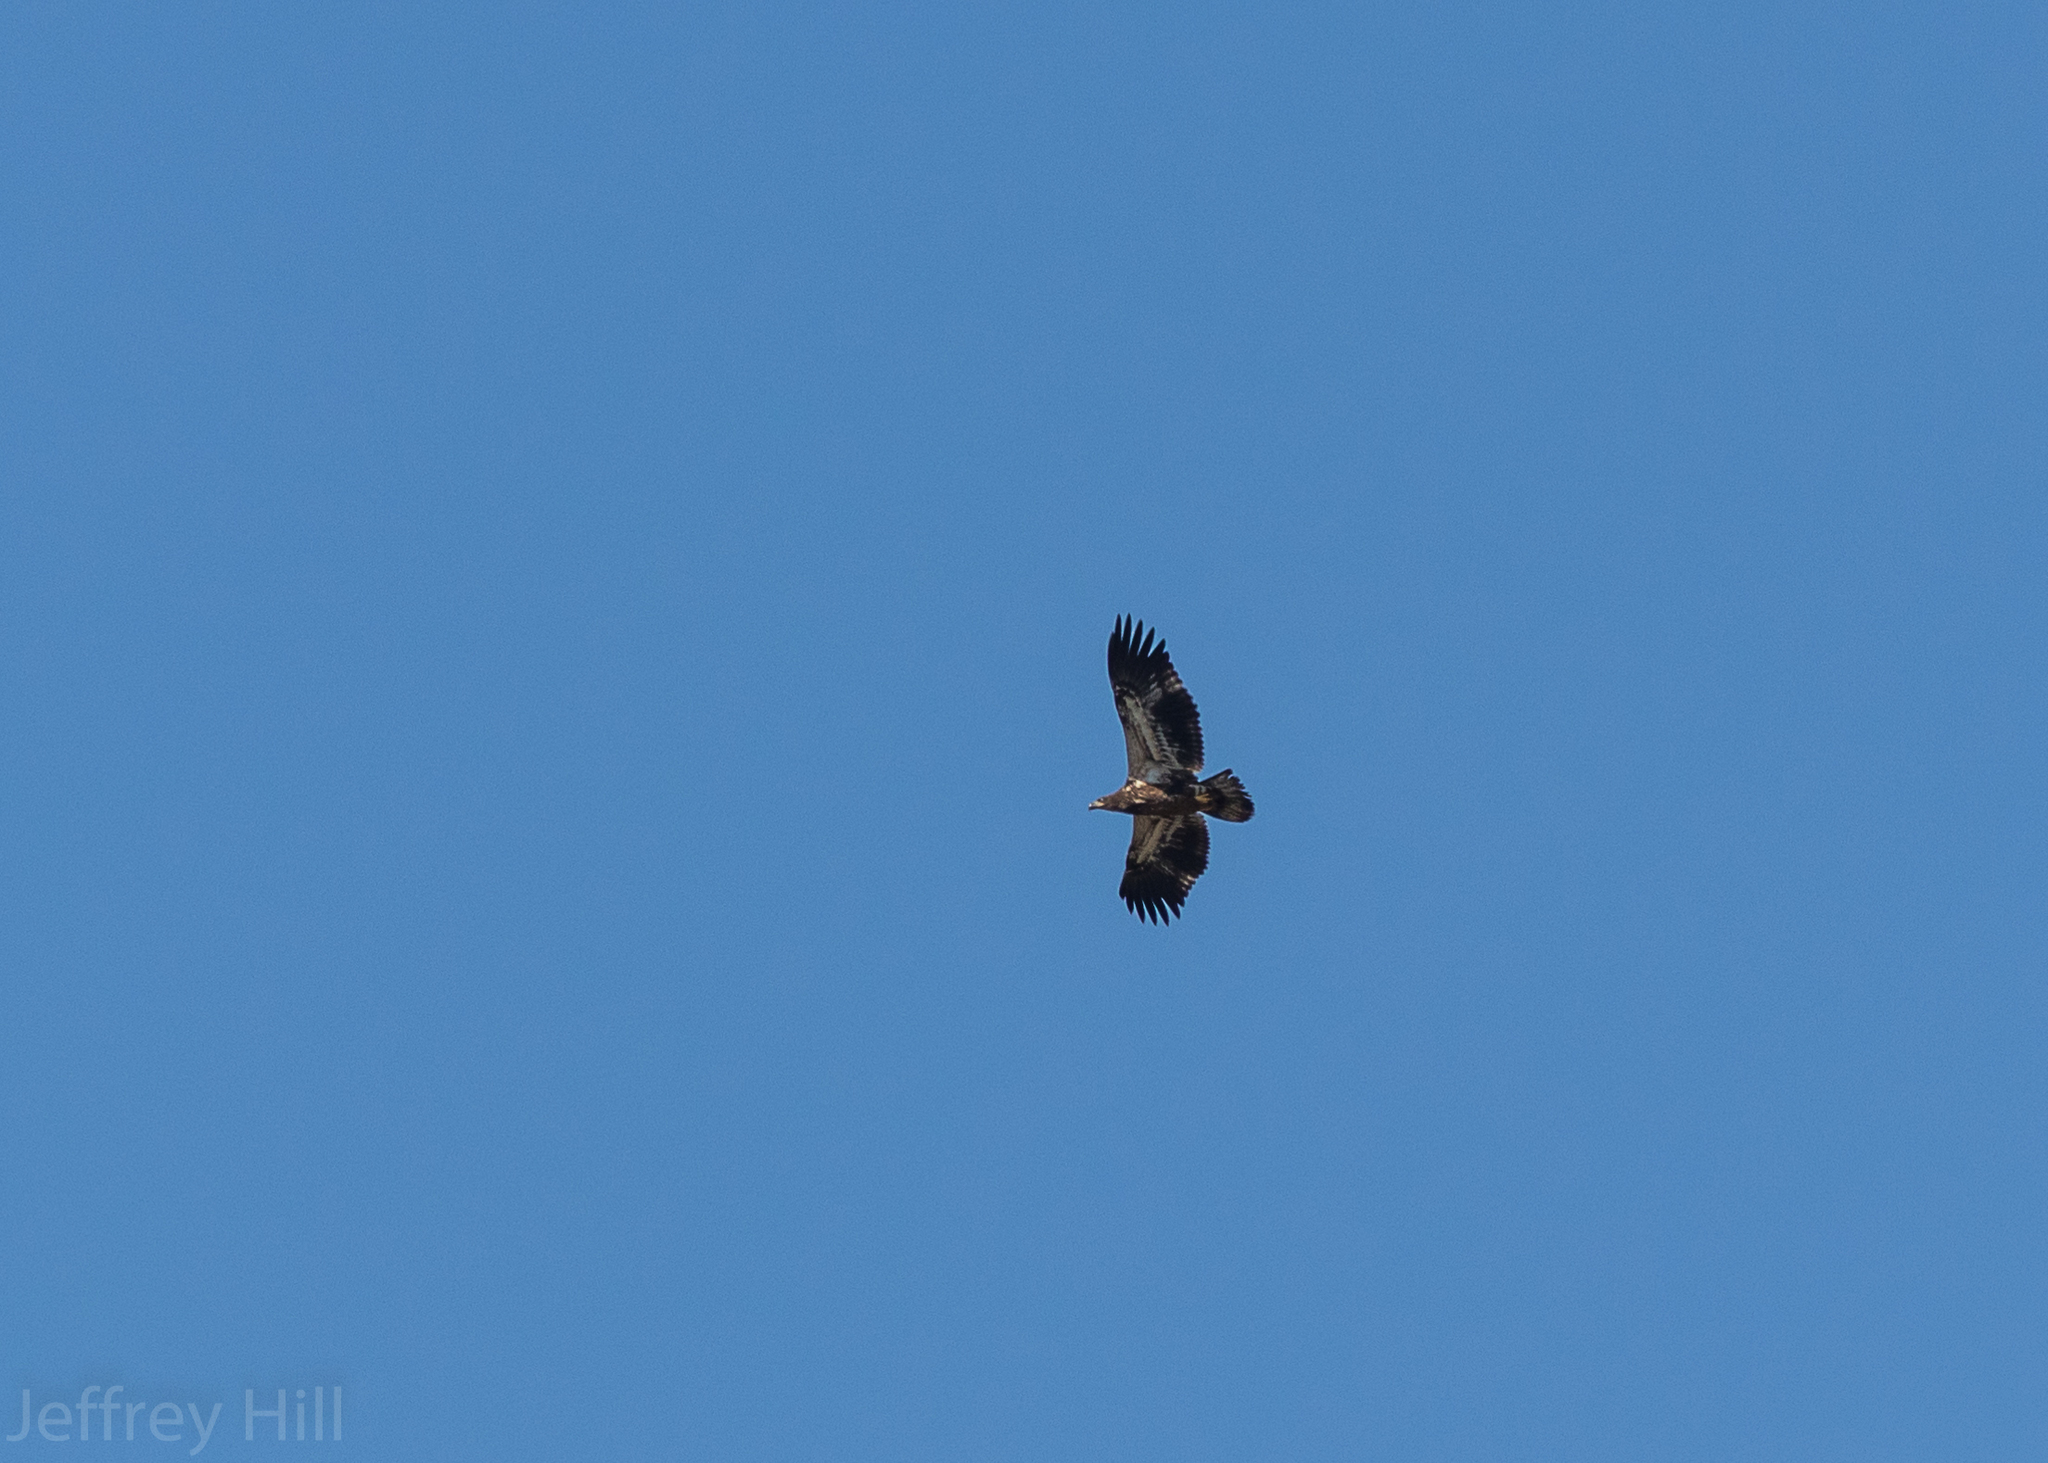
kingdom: Animalia
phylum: Chordata
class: Aves
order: Accipitriformes
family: Accipitridae
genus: Haliaeetus
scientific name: Haliaeetus leucocephalus
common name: Bald eagle
